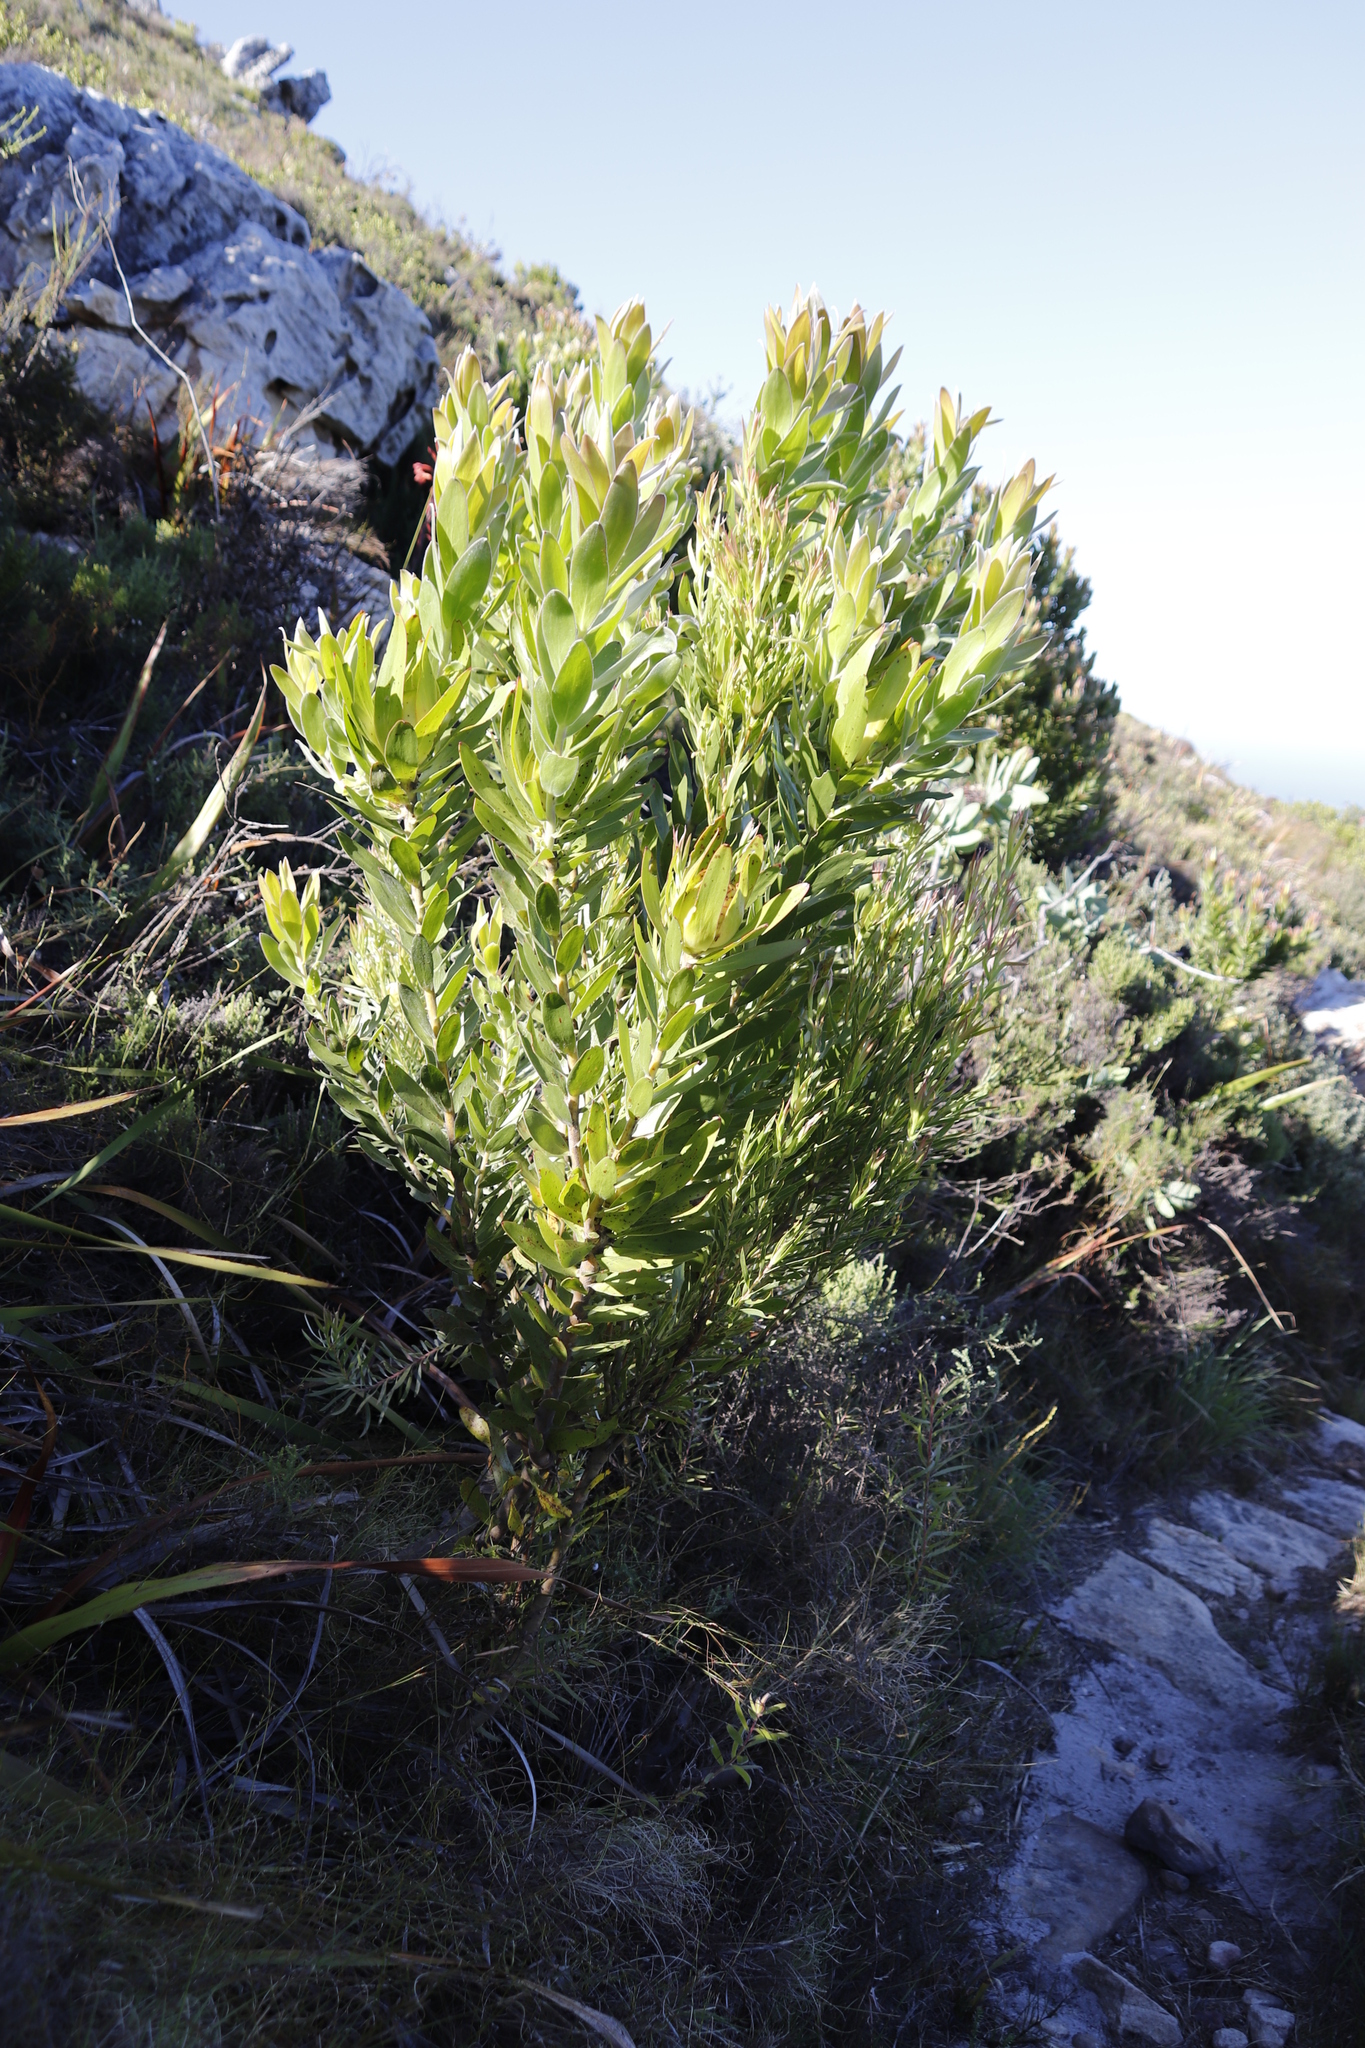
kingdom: Plantae
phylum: Tracheophyta
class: Magnoliopsida
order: Proteales
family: Proteaceae
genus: Leucadendron
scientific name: Leucadendron laureolum
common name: Golden sunshinebush
